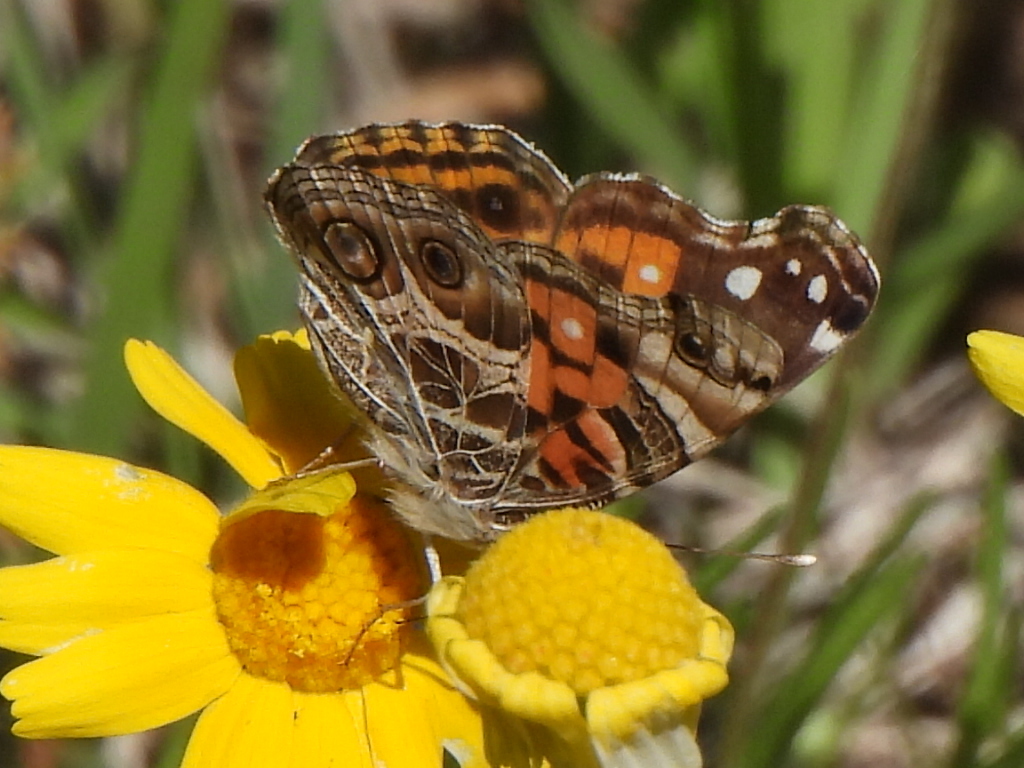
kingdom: Animalia
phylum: Arthropoda
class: Insecta
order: Lepidoptera
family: Nymphalidae
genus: Vanessa
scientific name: Vanessa virginiensis
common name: American lady
